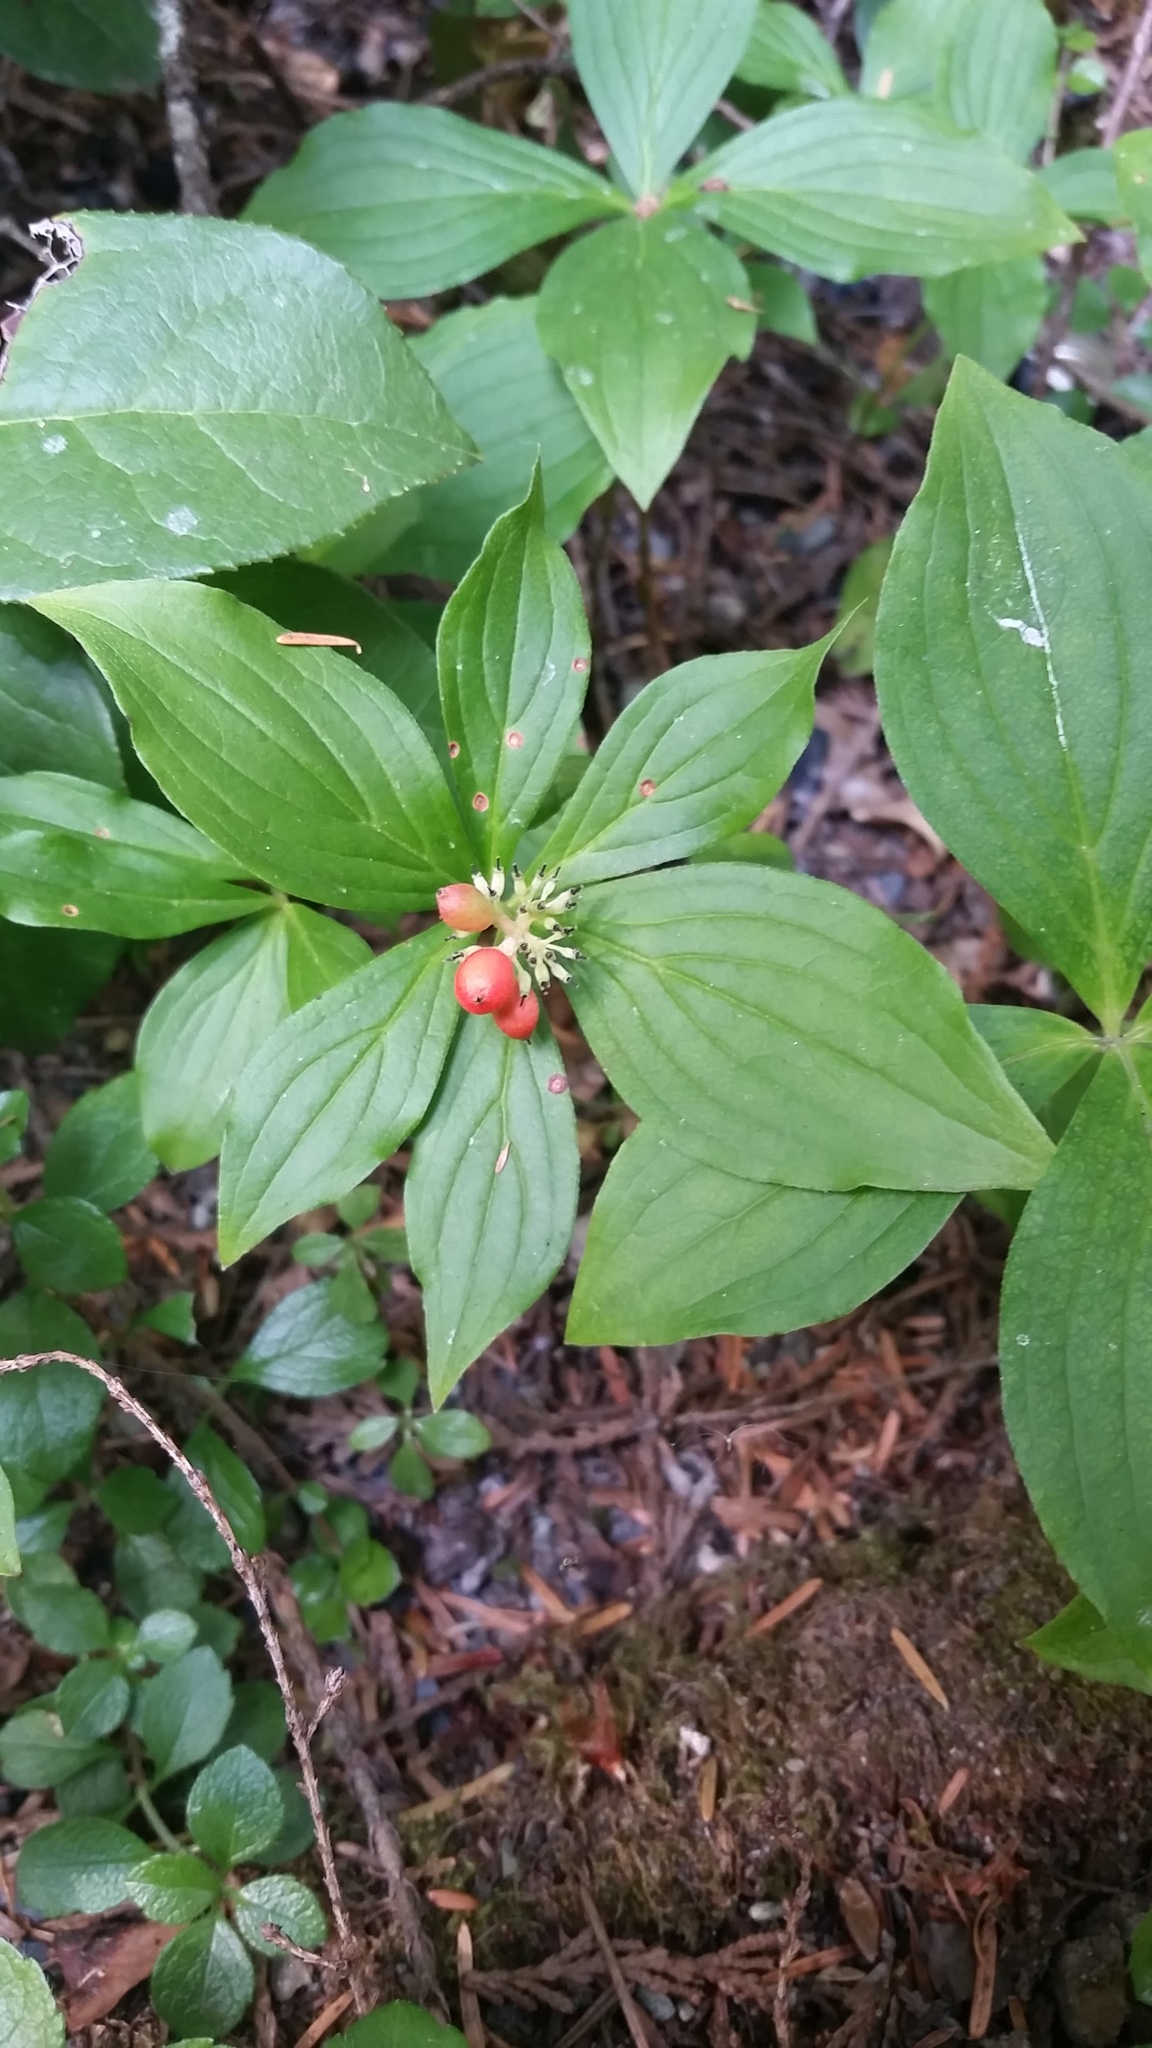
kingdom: Plantae
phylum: Tracheophyta
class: Magnoliopsida
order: Cornales
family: Cornaceae
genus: Cornus
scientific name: Cornus unalaschkensis
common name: Alaska bunchberry
